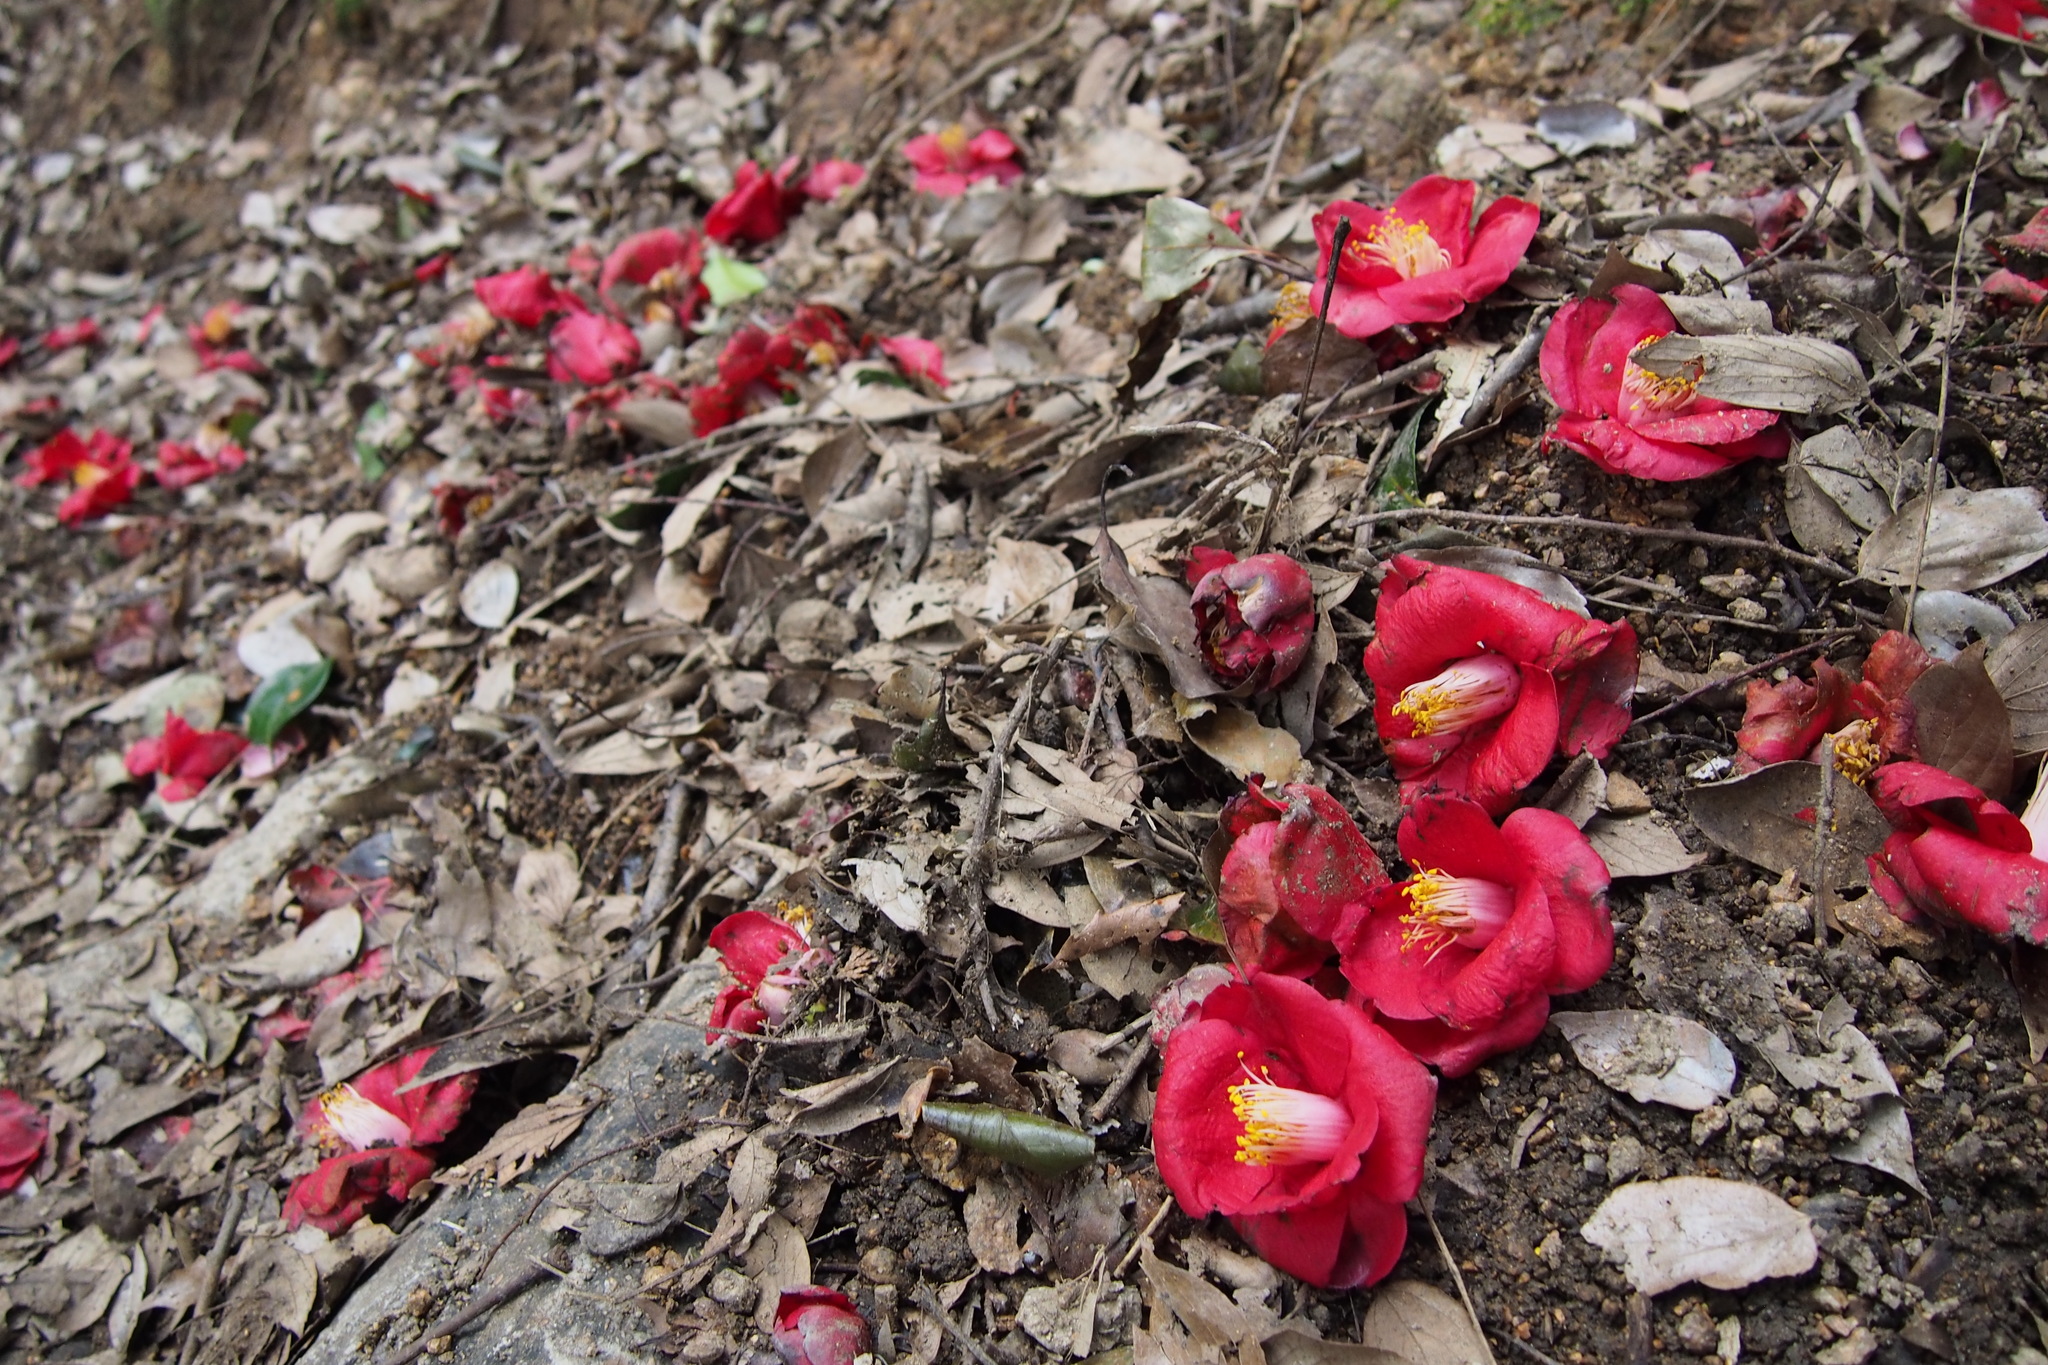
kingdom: Plantae
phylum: Tracheophyta
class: Magnoliopsida
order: Ericales
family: Theaceae
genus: Camellia
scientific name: Camellia japonica
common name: Camellia
